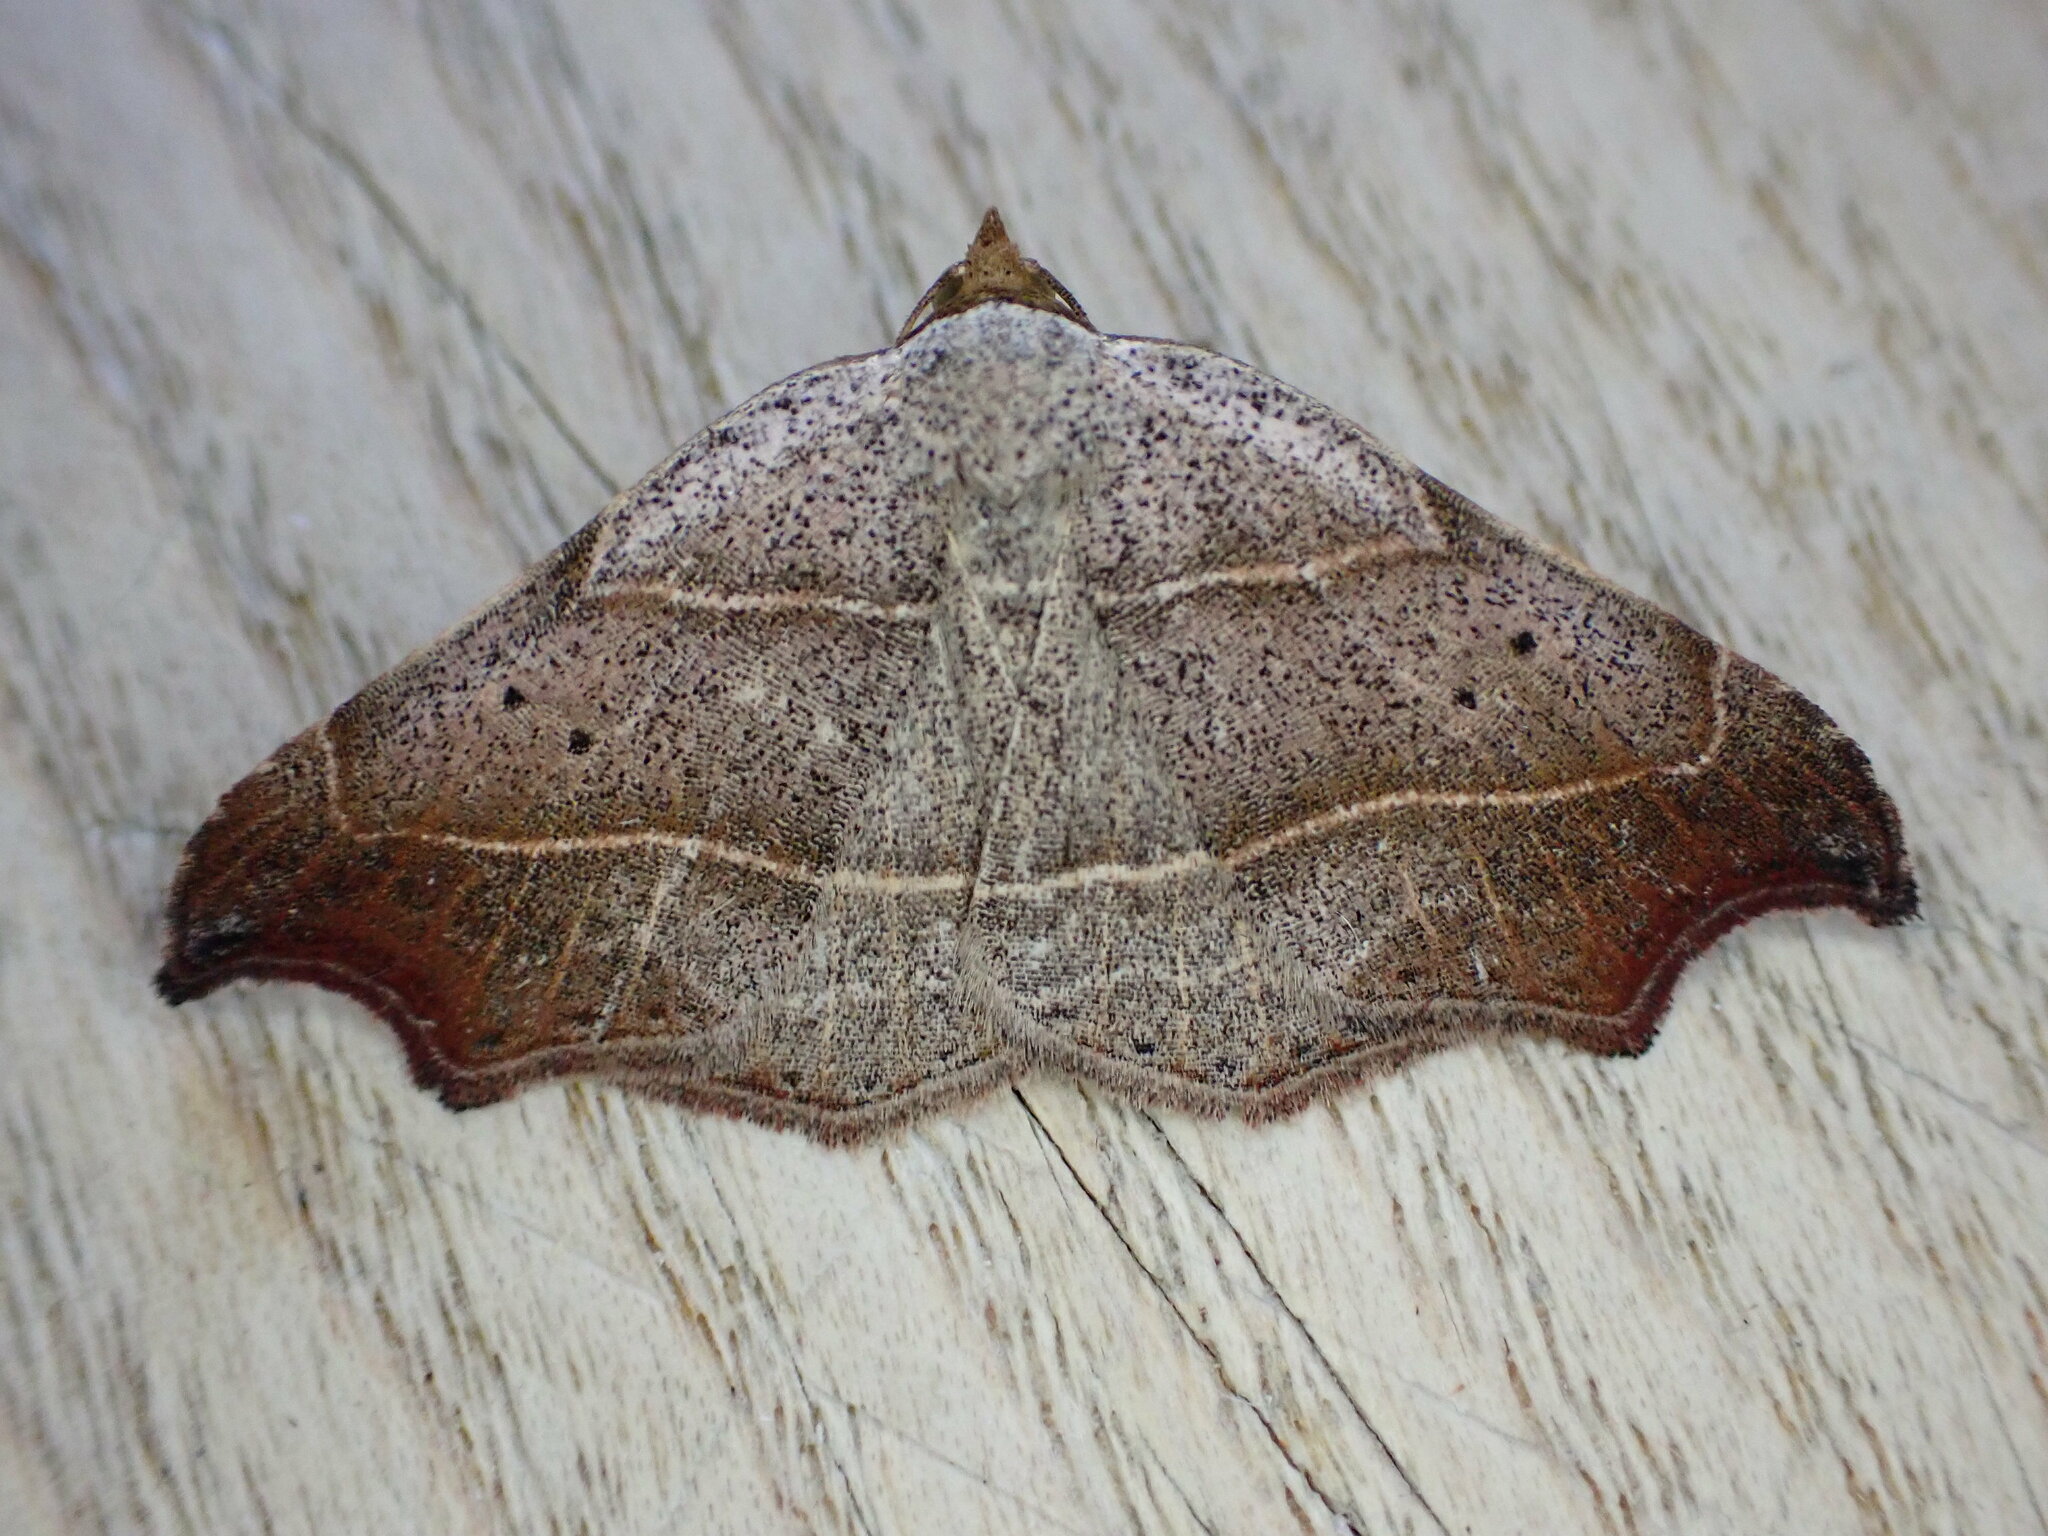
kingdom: Animalia
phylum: Arthropoda
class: Insecta
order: Lepidoptera
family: Erebidae
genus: Laspeyria
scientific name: Laspeyria flexula
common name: Beautiful hook-tip
